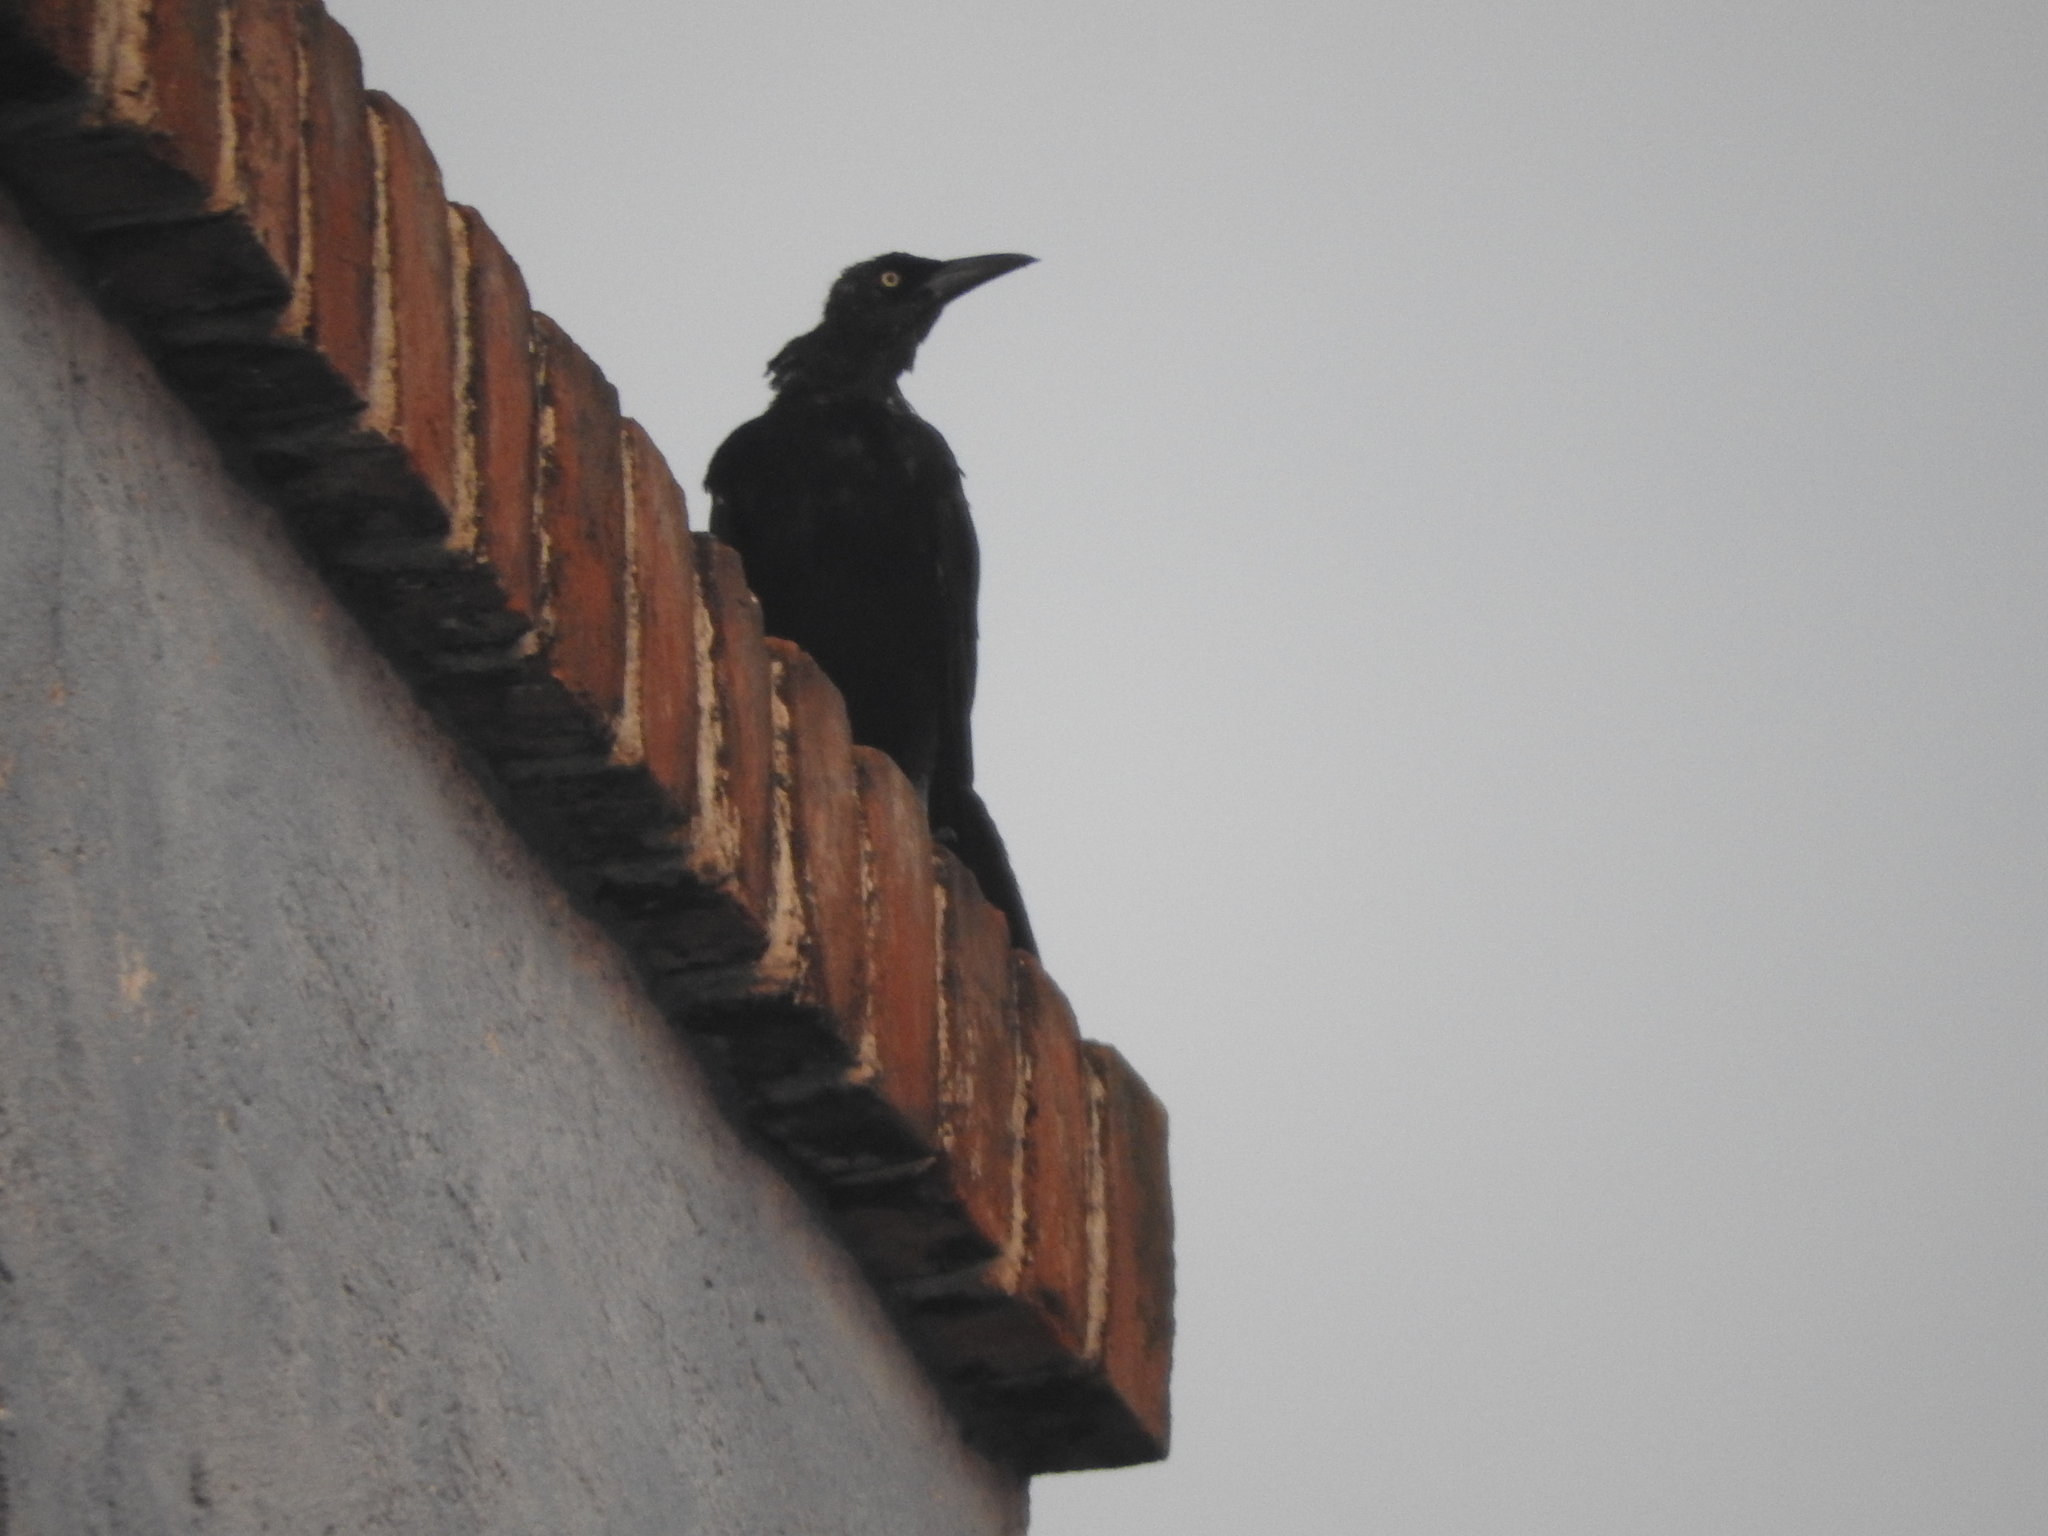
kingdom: Animalia
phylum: Chordata
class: Aves
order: Passeriformes
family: Icteridae
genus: Quiscalus
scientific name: Quiscalus mexicanus
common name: Great-tailed grackle
